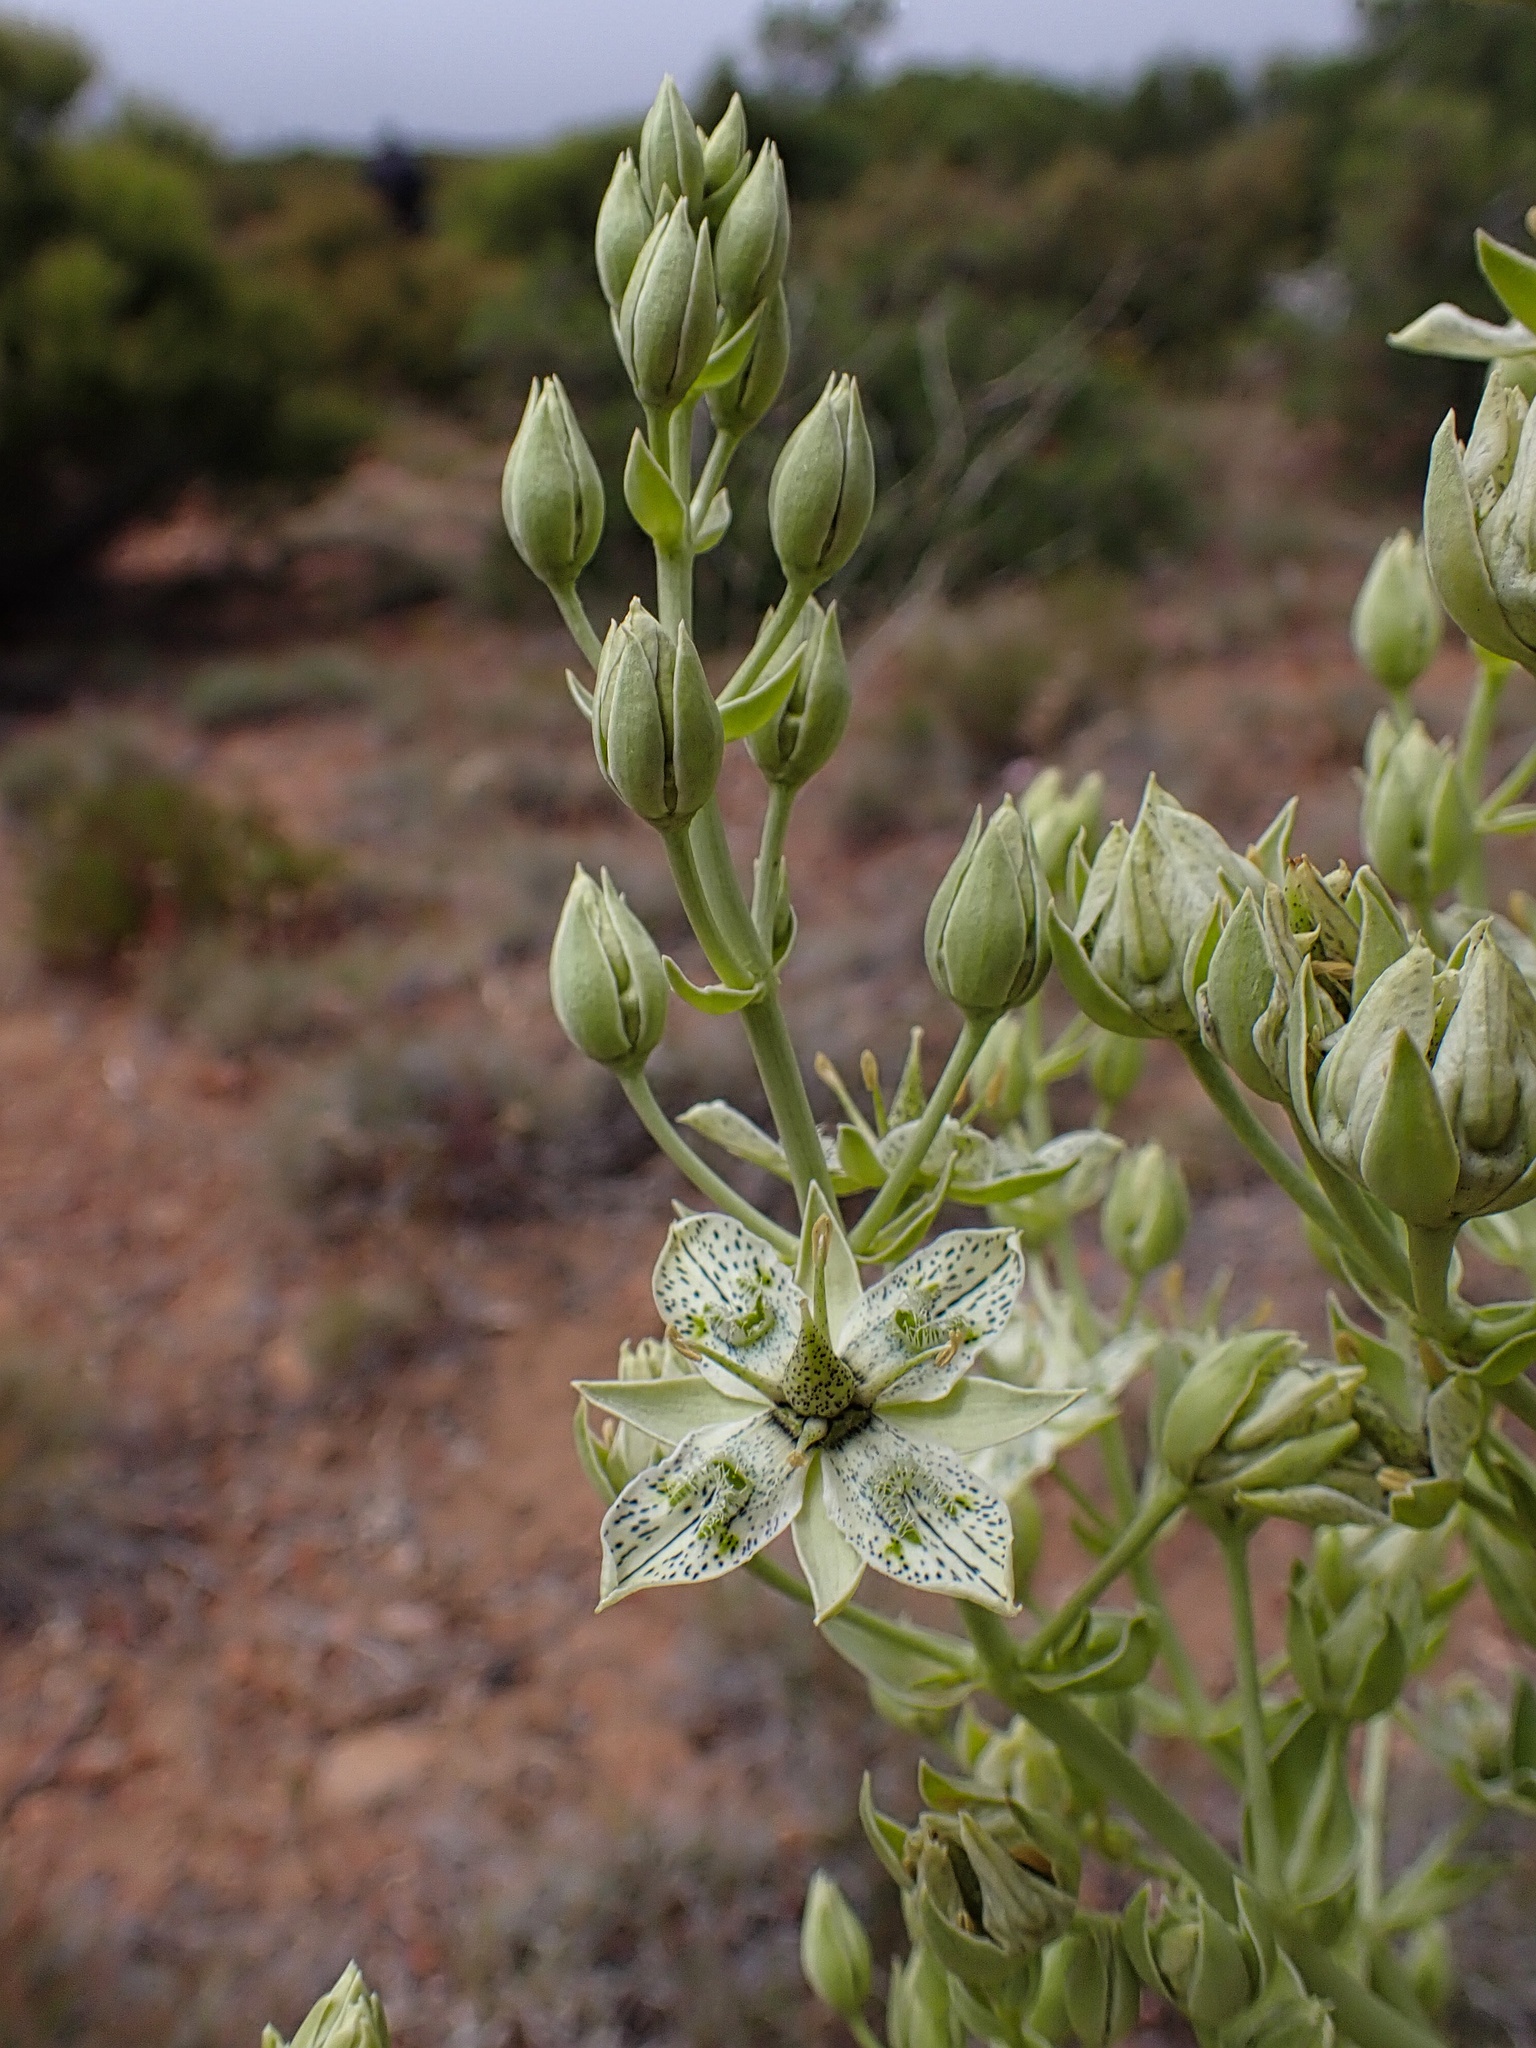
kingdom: Plantae
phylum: Tracheophyta
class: Magnoliopsida
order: Gentianales
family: Gentianaceae
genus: Frasera
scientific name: Frasera parryi
